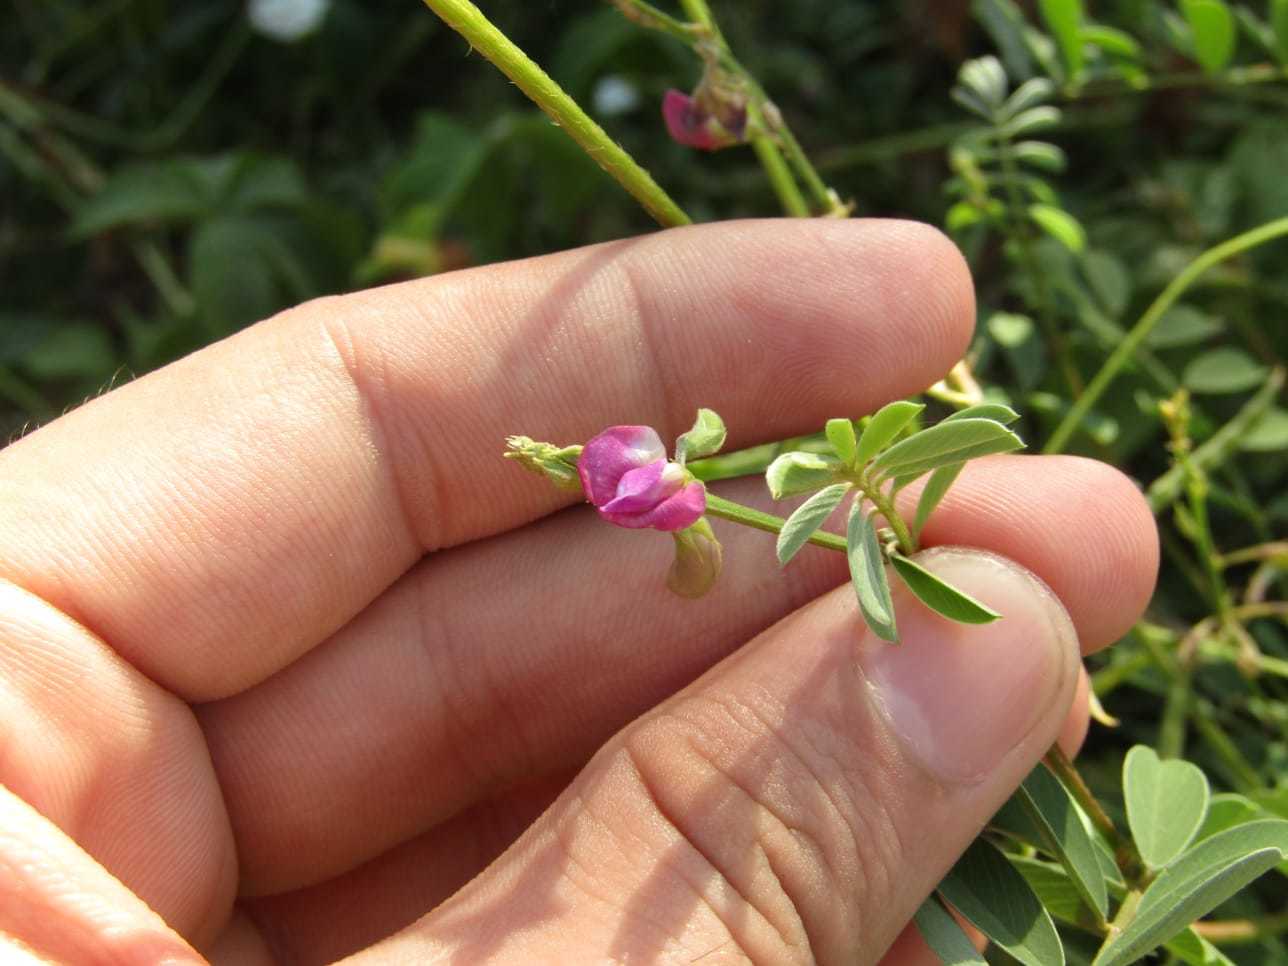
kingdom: Plantae
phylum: Tracheophyta
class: Magnoliopsida
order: Fabales
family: Fabaceae
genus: Tephrosia
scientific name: Tephrosia cinerea
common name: Ashen hoarypea
